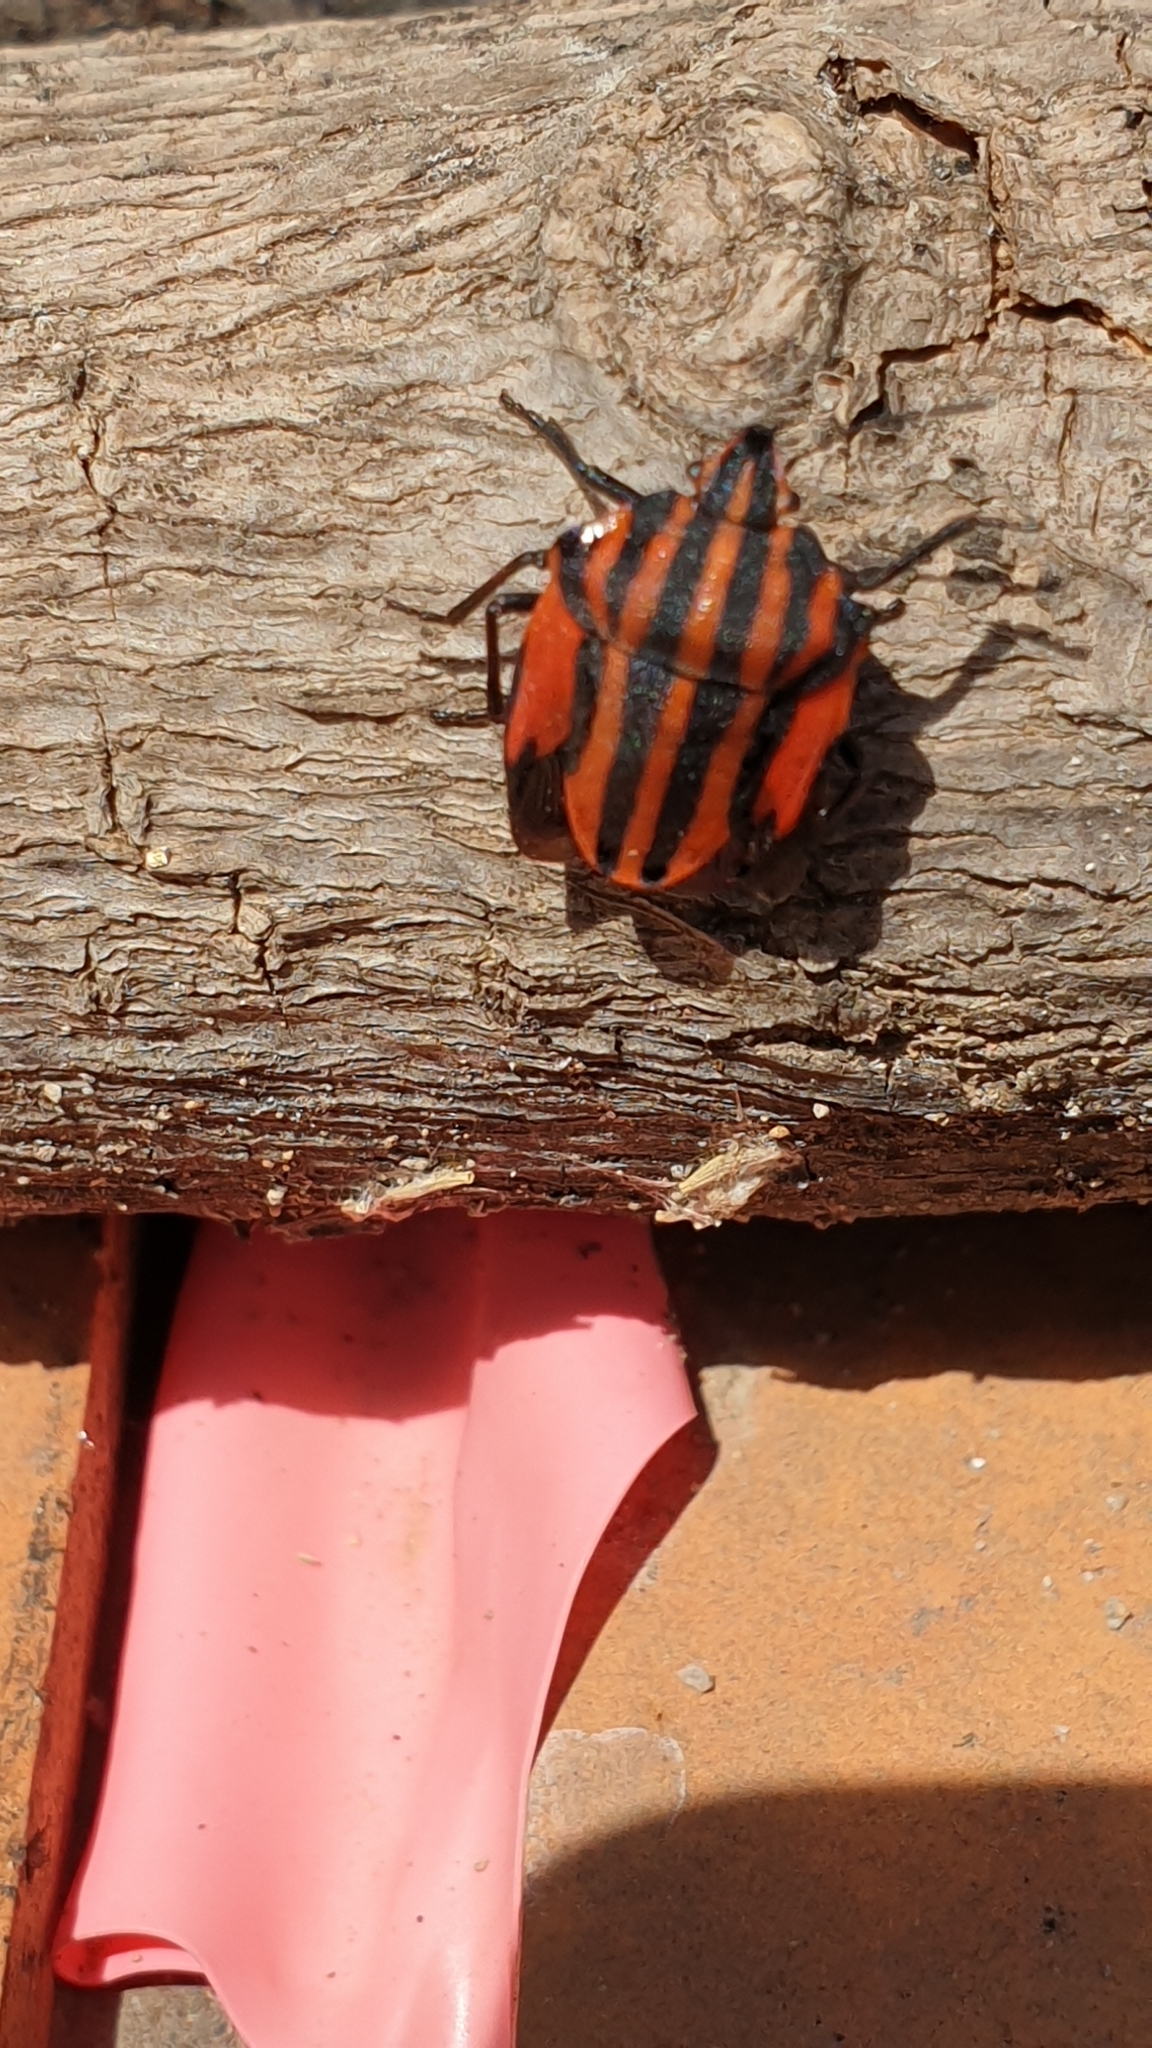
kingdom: Animalia
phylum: Arthropoda
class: Insecta
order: Hemiptera
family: Pentatomidae
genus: Graphosoma
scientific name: Graphosoma italicum
